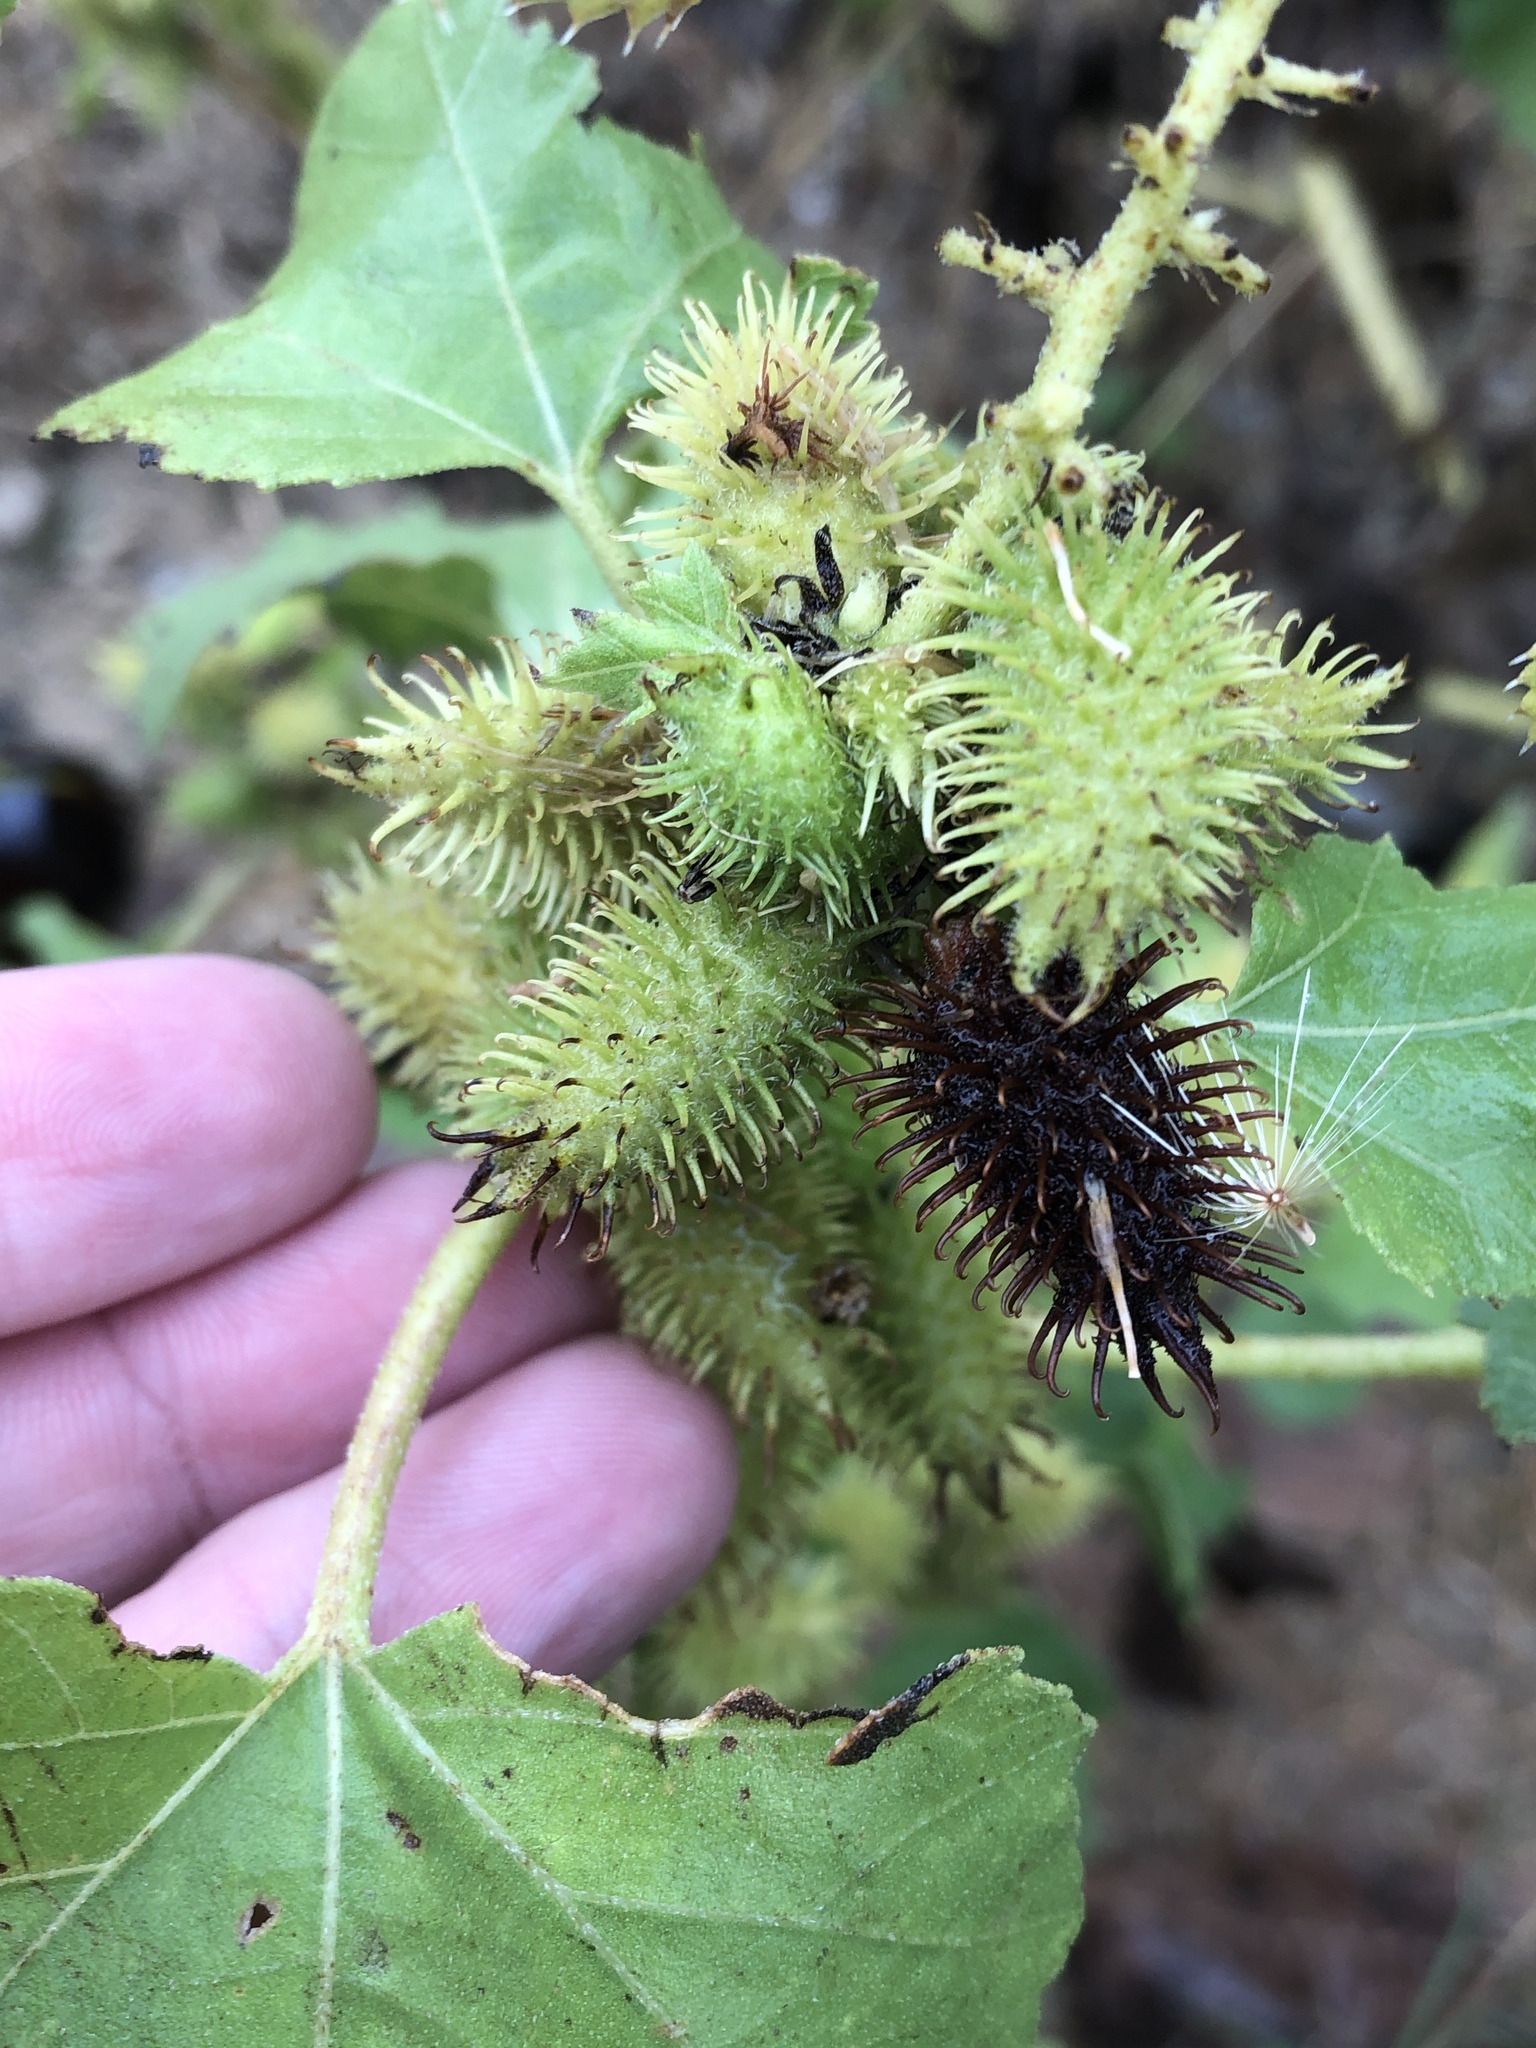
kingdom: Plantae
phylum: Tracheophyta
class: Magnoliopsida
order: Asterales
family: Asteraceae
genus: Xanthium
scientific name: Xanthium strumarium
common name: Rough cocklebur
